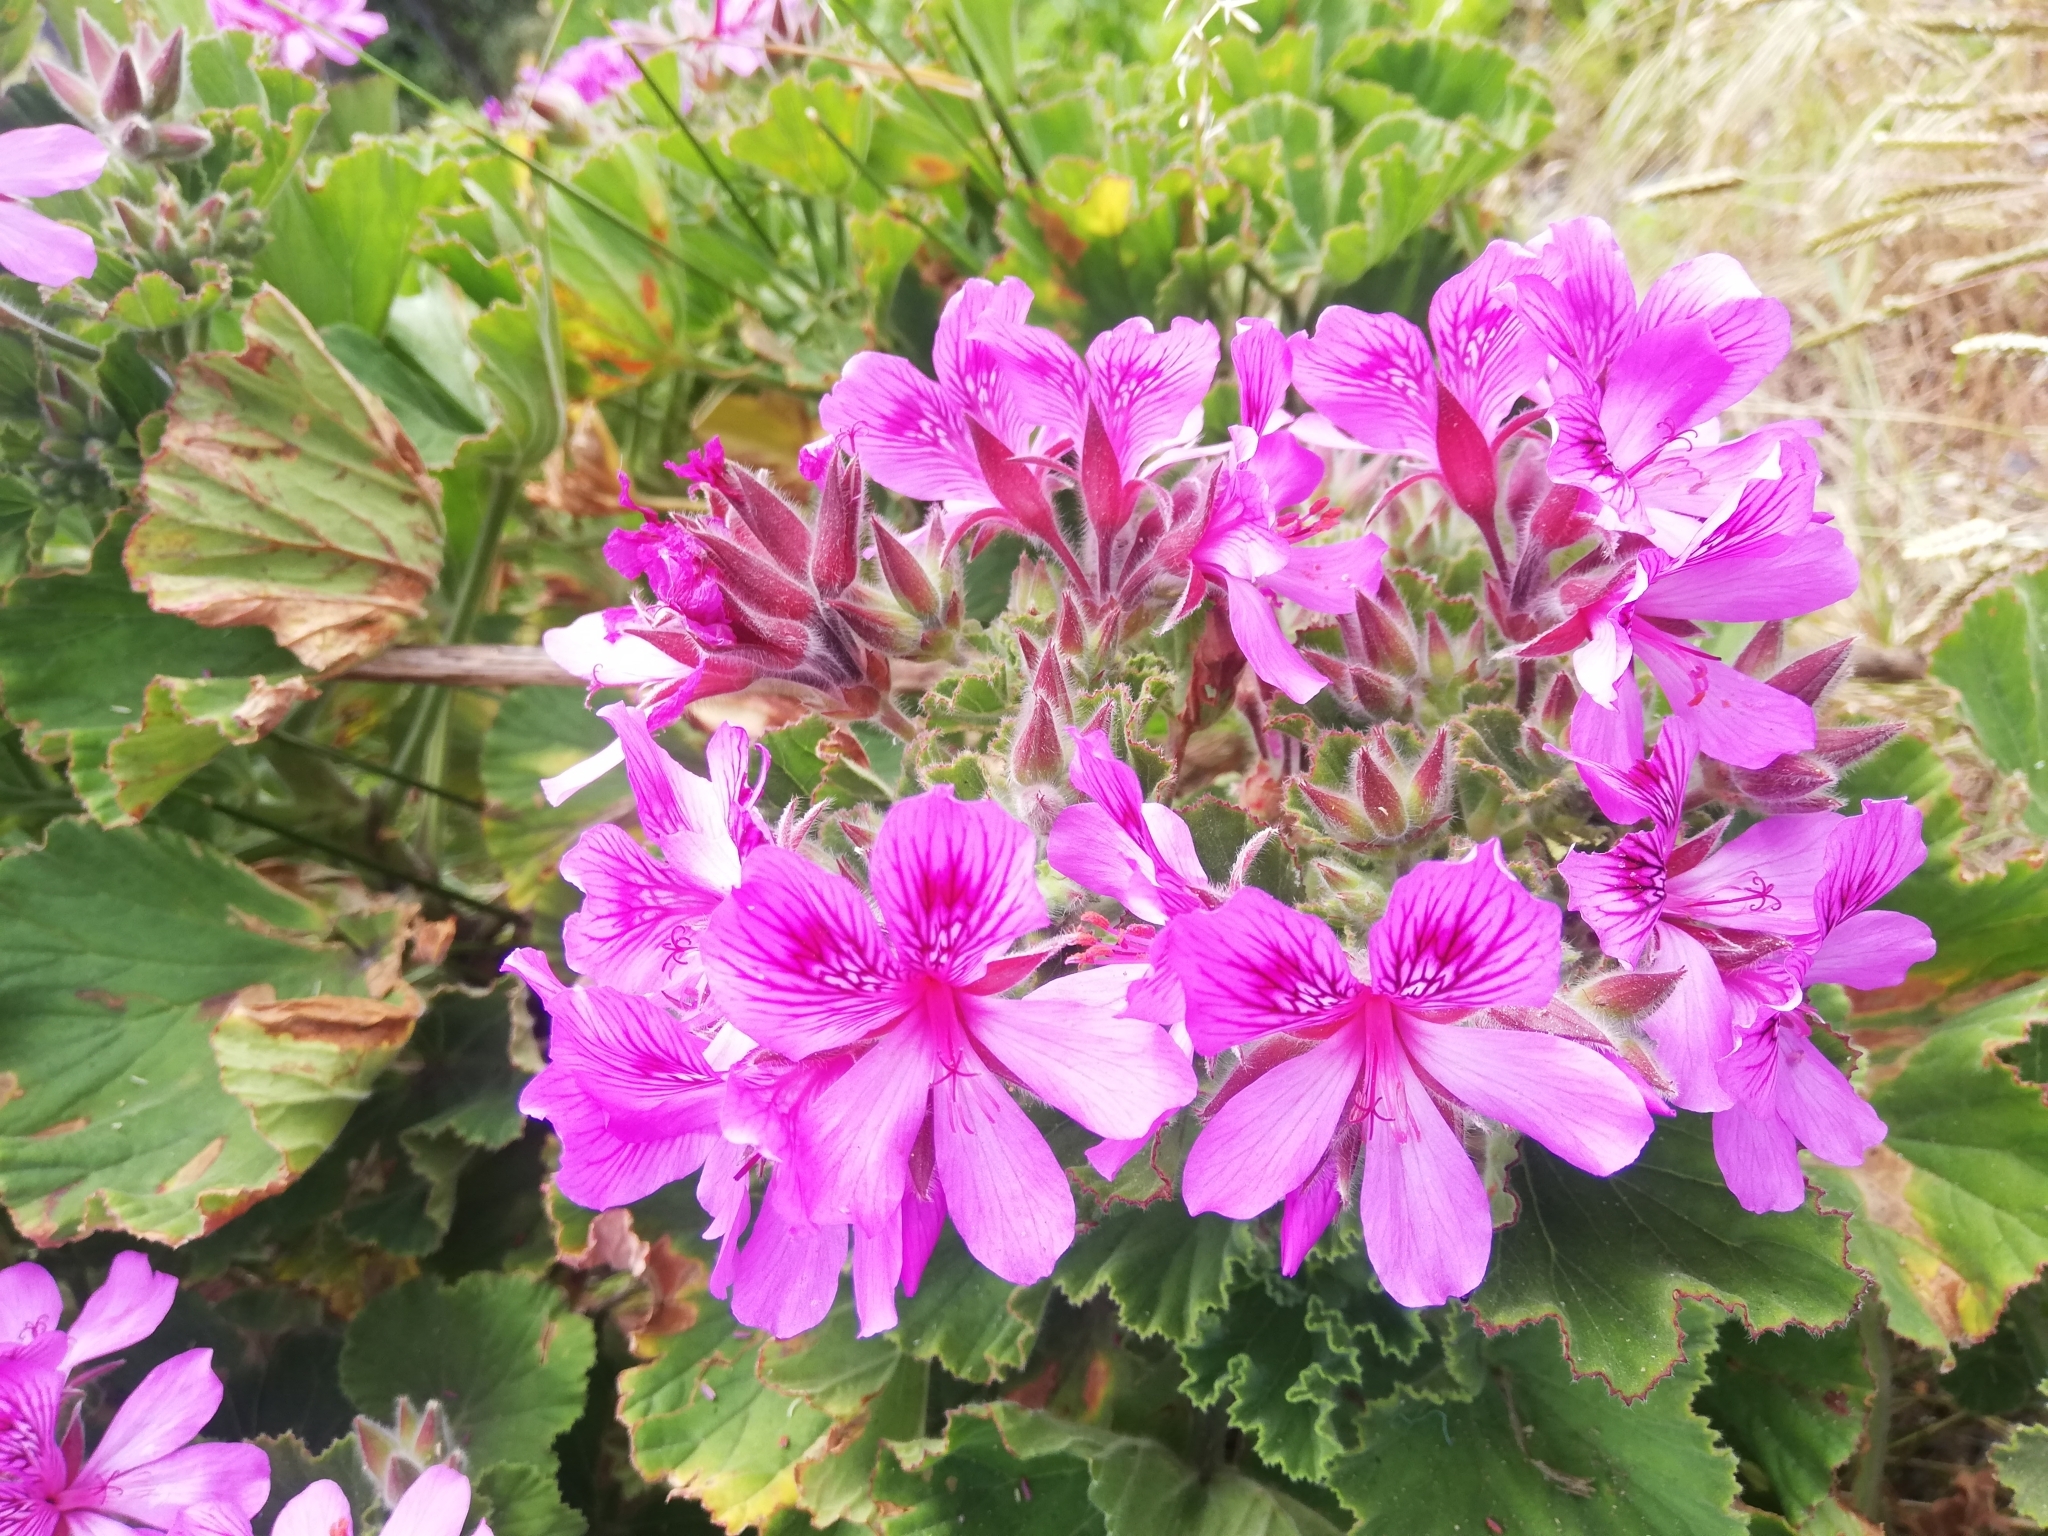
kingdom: Plantae
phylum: Tracheophyta
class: Magnoliopsida
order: Geraniales
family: Geraniaceae
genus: Pelargonium
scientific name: Pelargonium cucullatum
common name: Tree pelargonium
